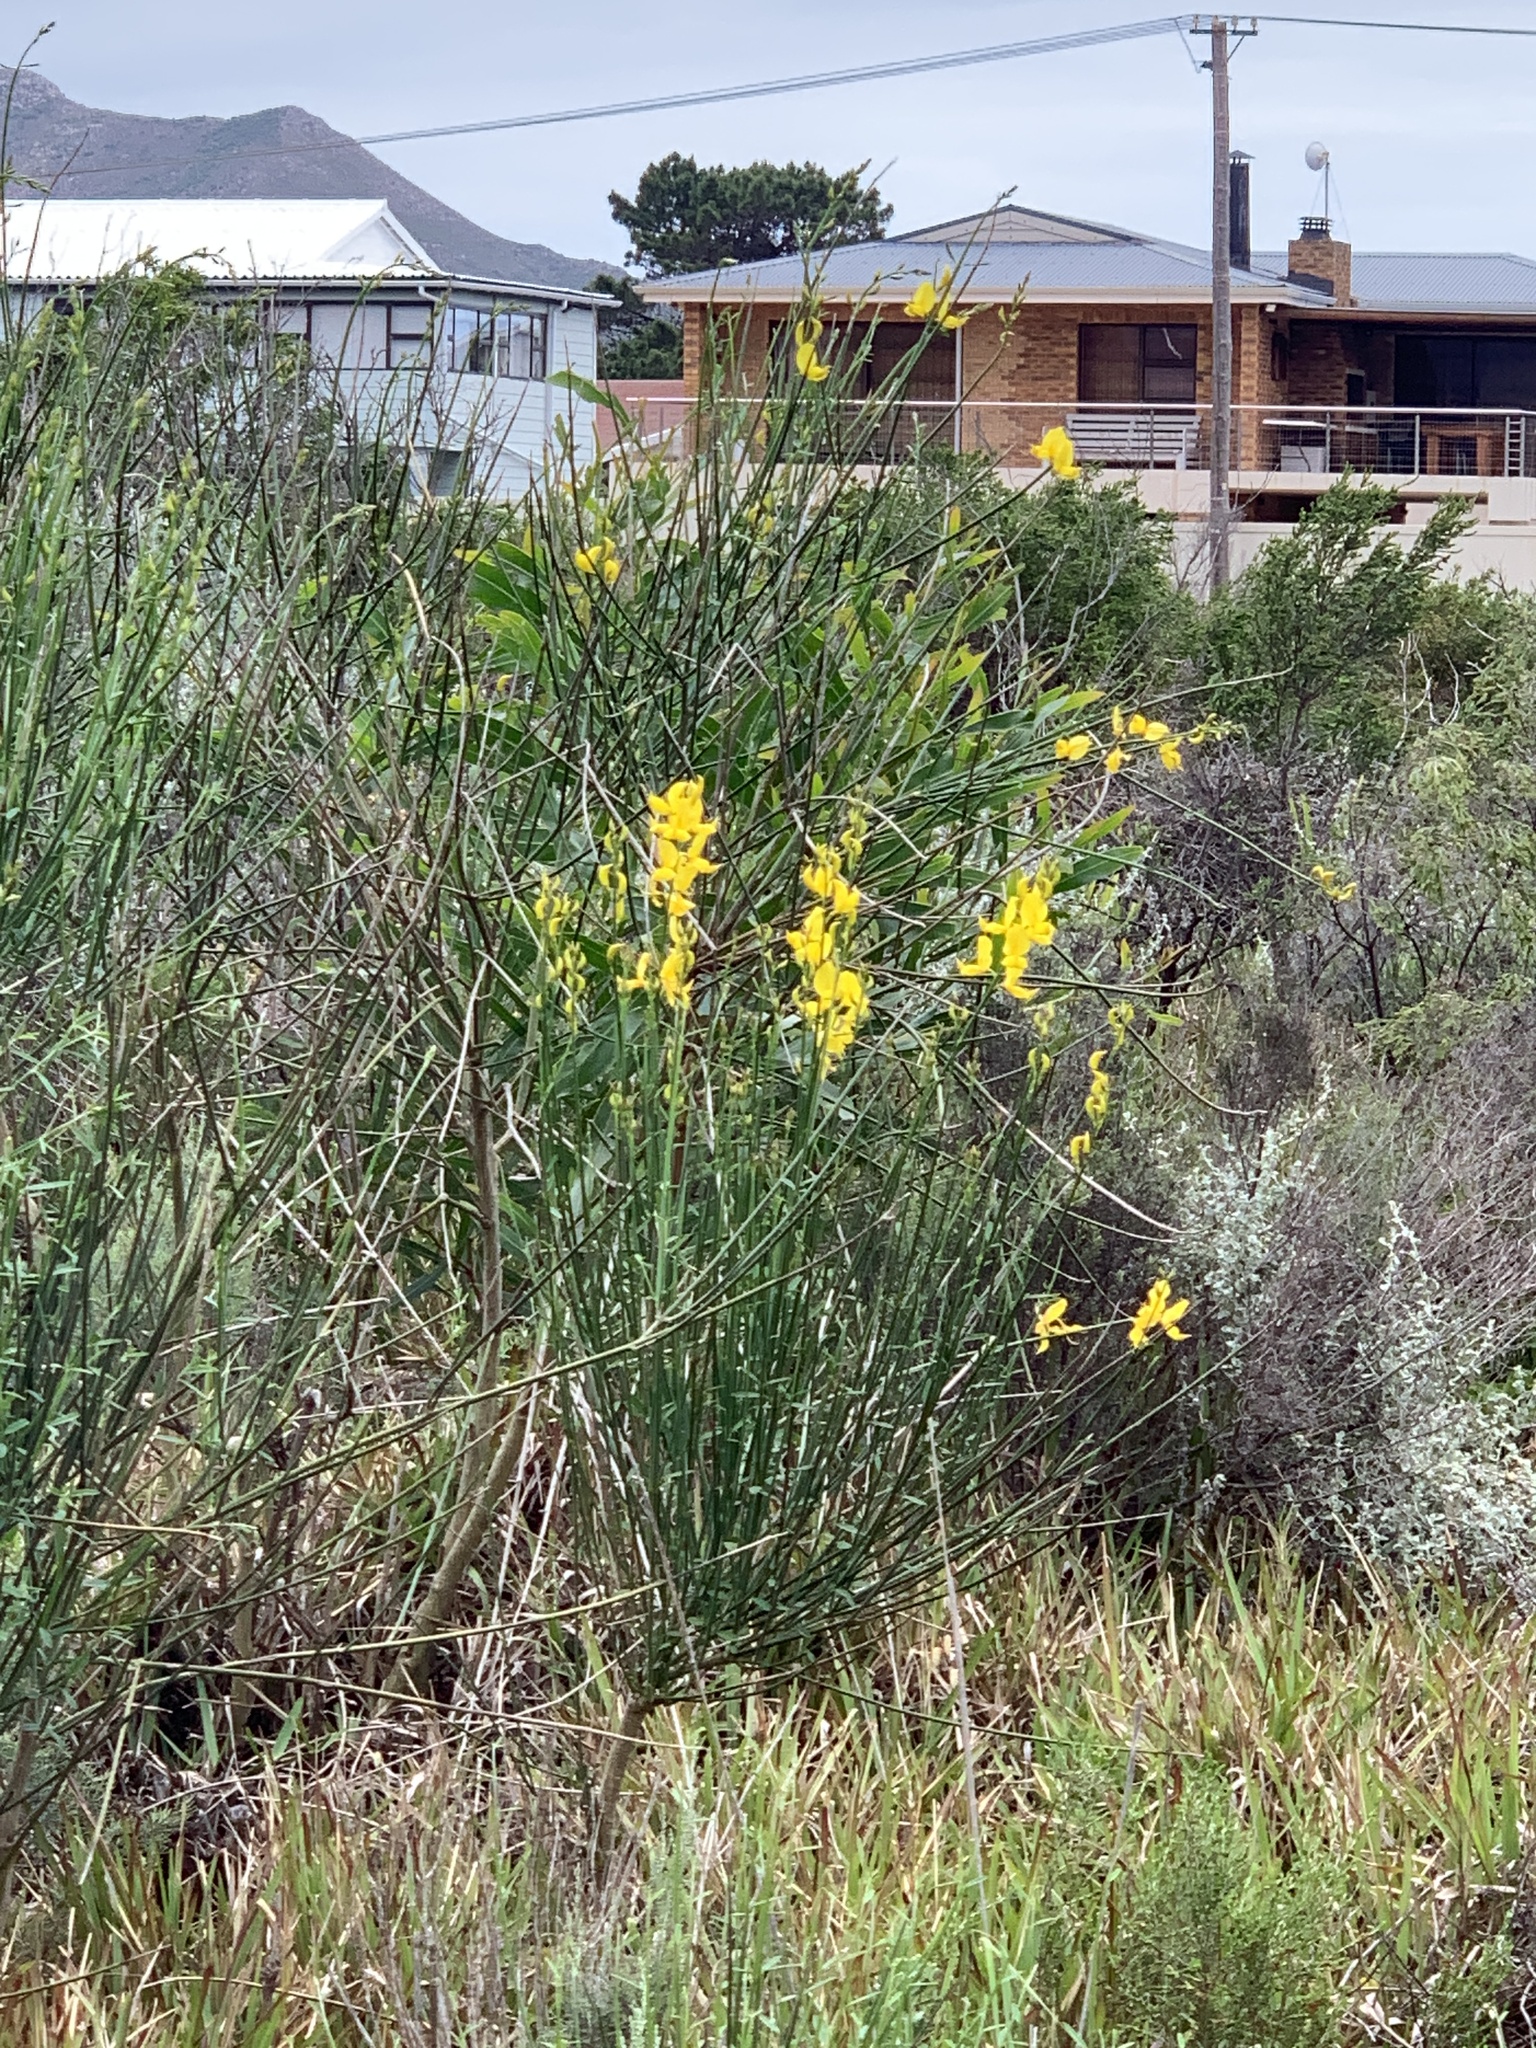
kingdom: Plantae
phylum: Tracheophyta
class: Magnoliopsida
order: Fabales
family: Fabaceae
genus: Spartium
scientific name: Spartium junceum
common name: Spanish broom
